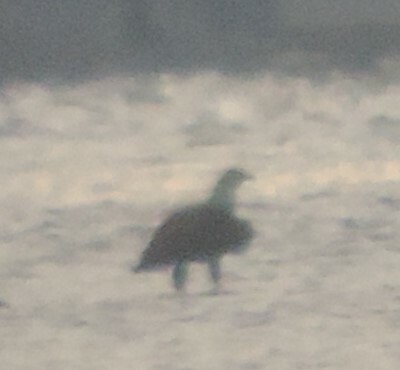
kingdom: Animalia
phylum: Chordata
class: Aves
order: Accipitriformes
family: Accipitridae
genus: Haliaeetus
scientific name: Haliaeetus leucocephalus
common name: Bald eagle
